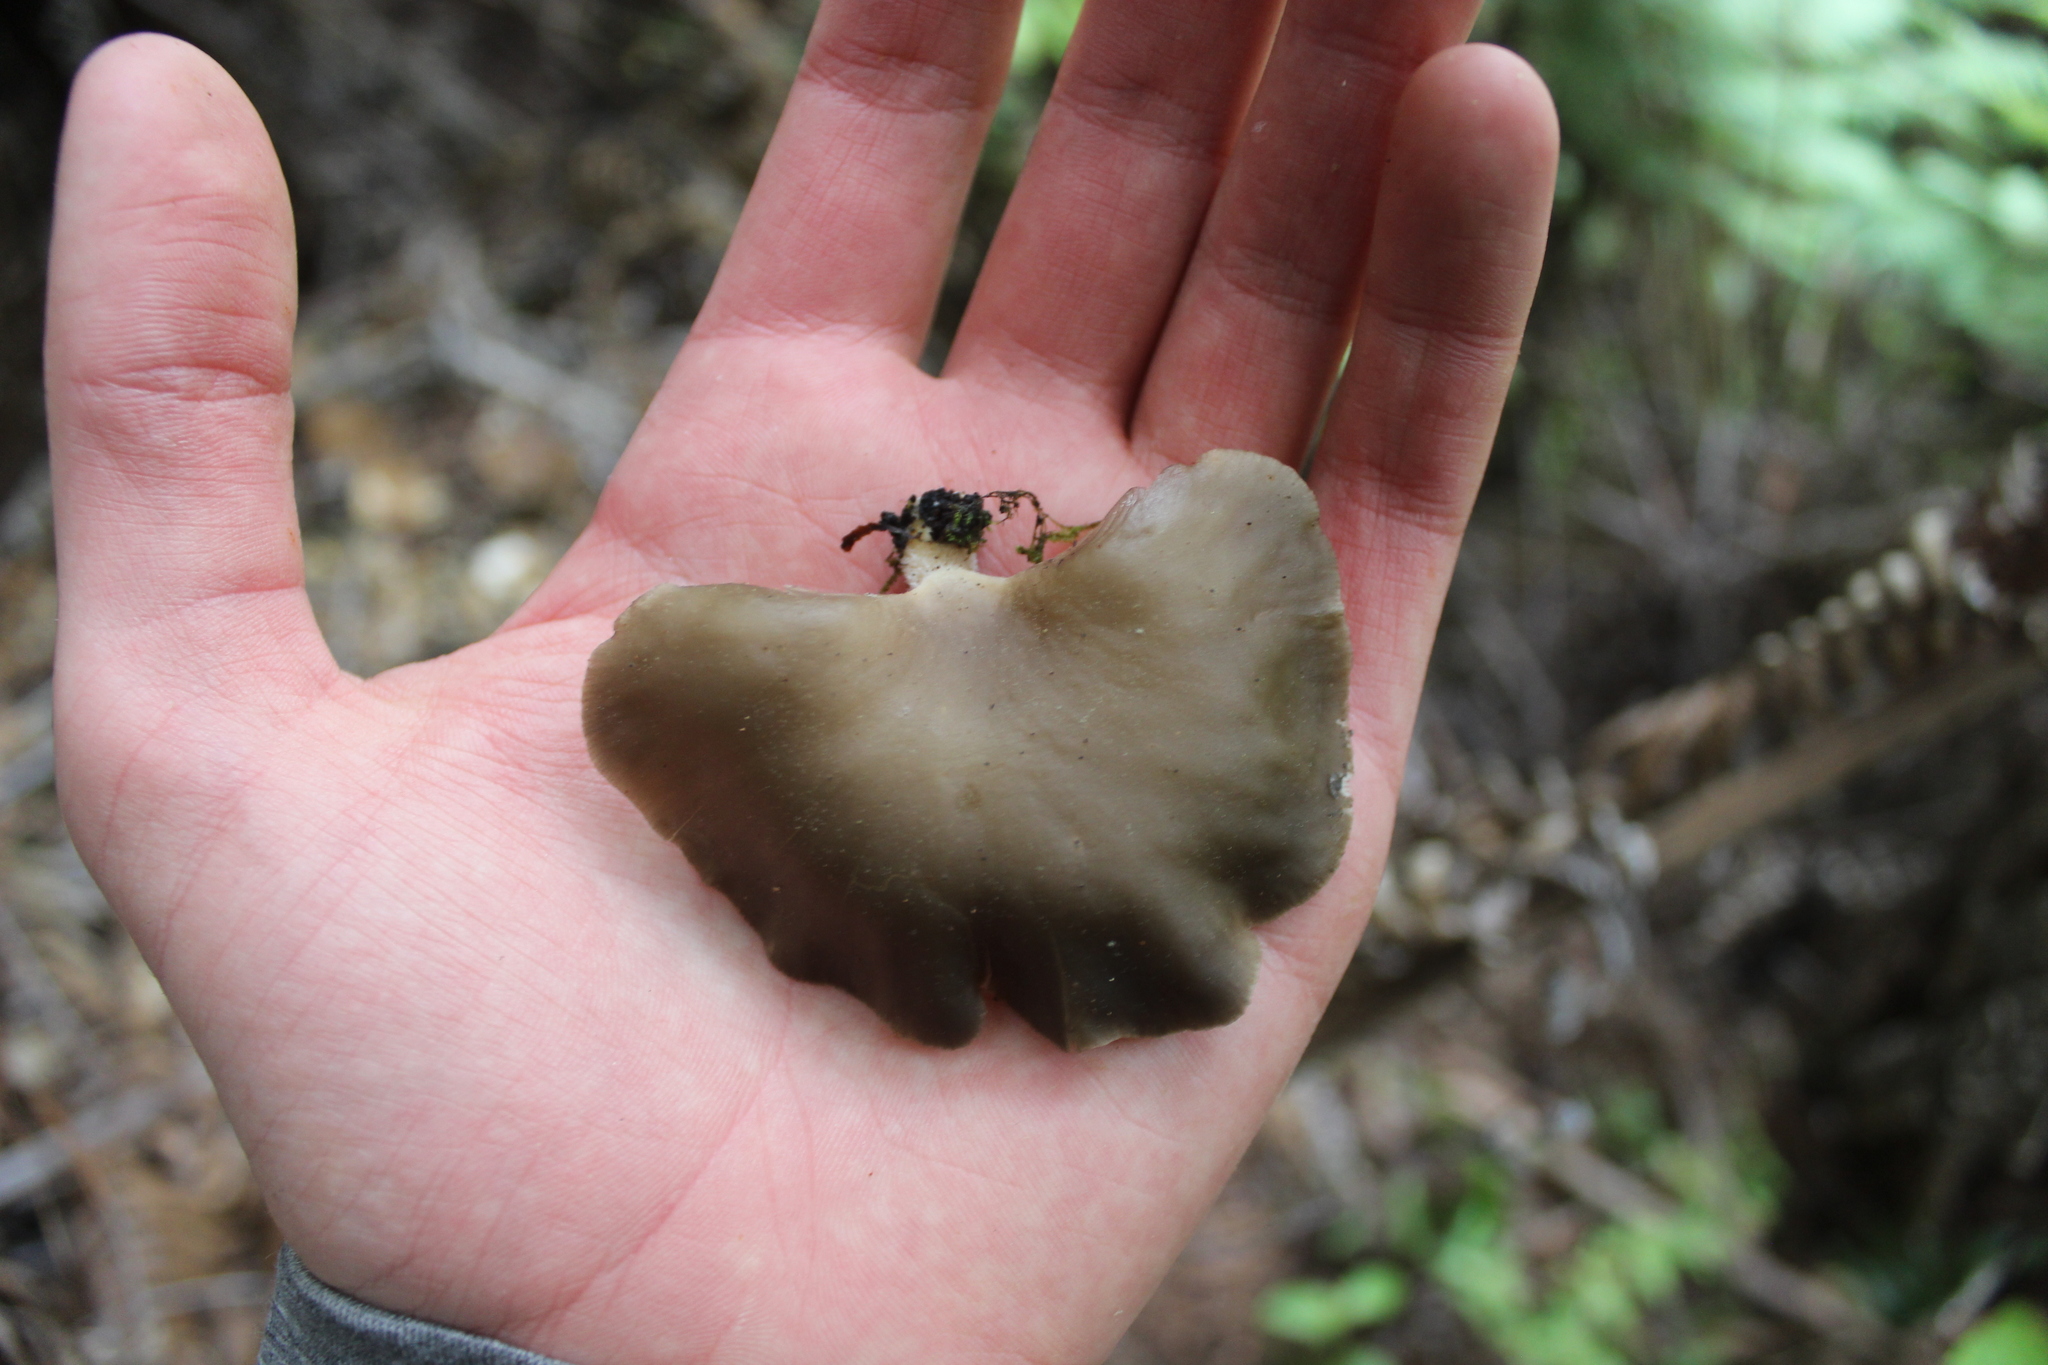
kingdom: Fungi
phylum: Basidiomycota
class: Agaricomycetes
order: Agaricales
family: Pleurotaceae
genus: Pleurotus
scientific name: Pleurotus purpureo-olivaceus
